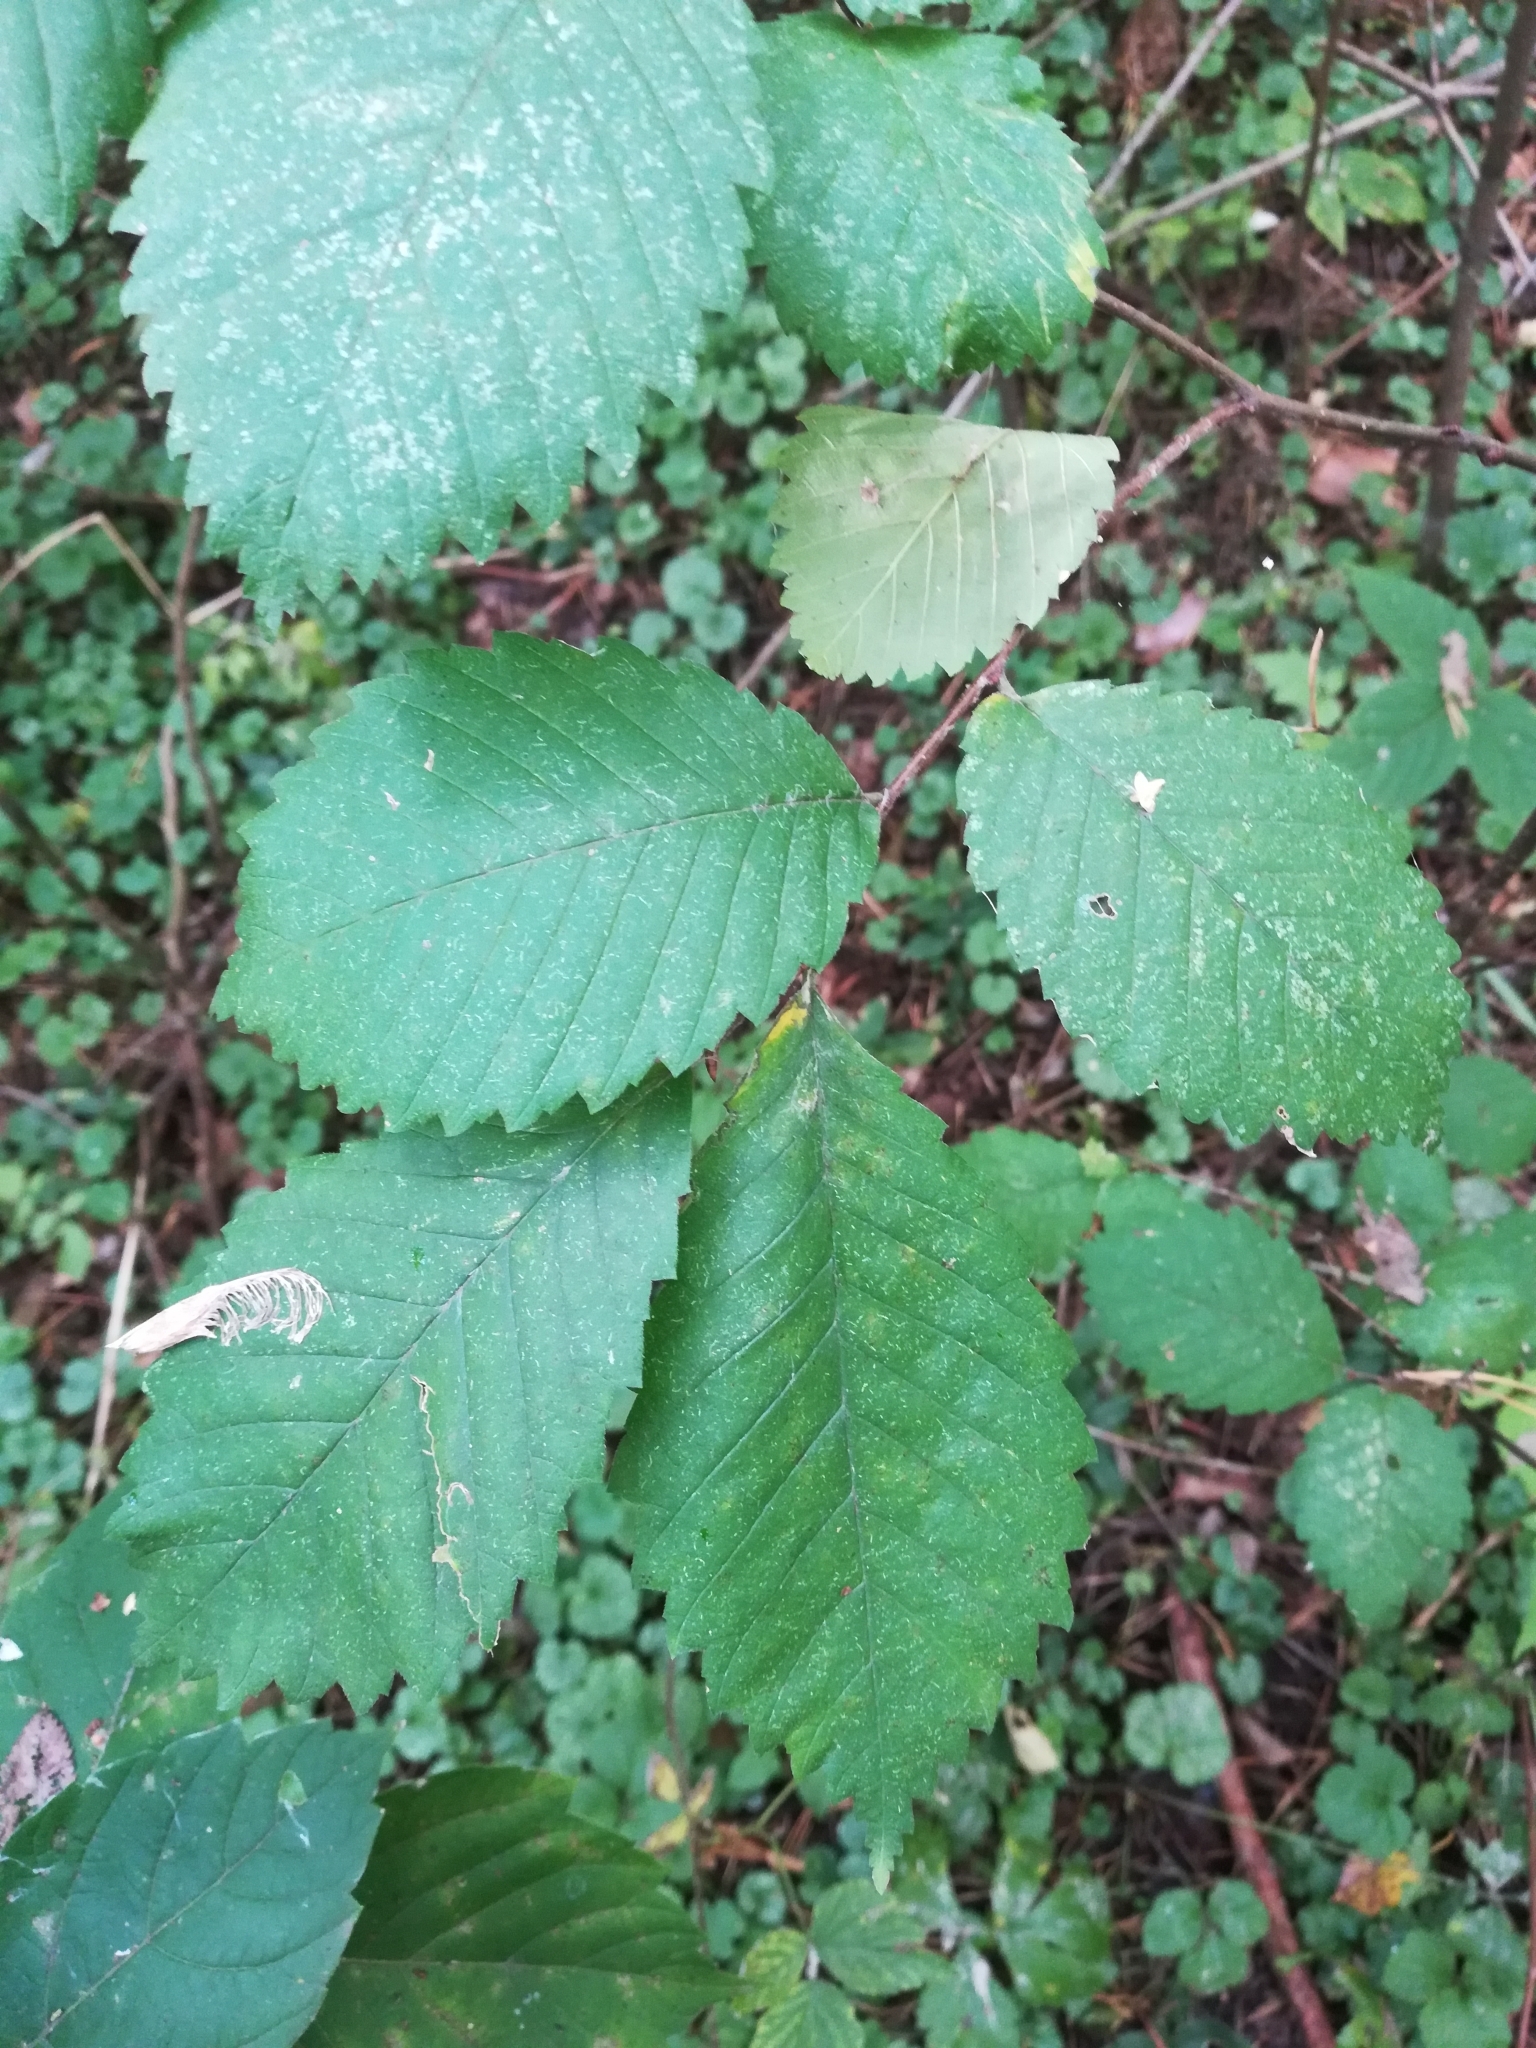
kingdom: Plantae
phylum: Tracheophyta
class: Magnoliopsida
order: Rosales
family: Ulmaceae
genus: Ulmus
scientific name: Ulmus laevis
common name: European white-elm
